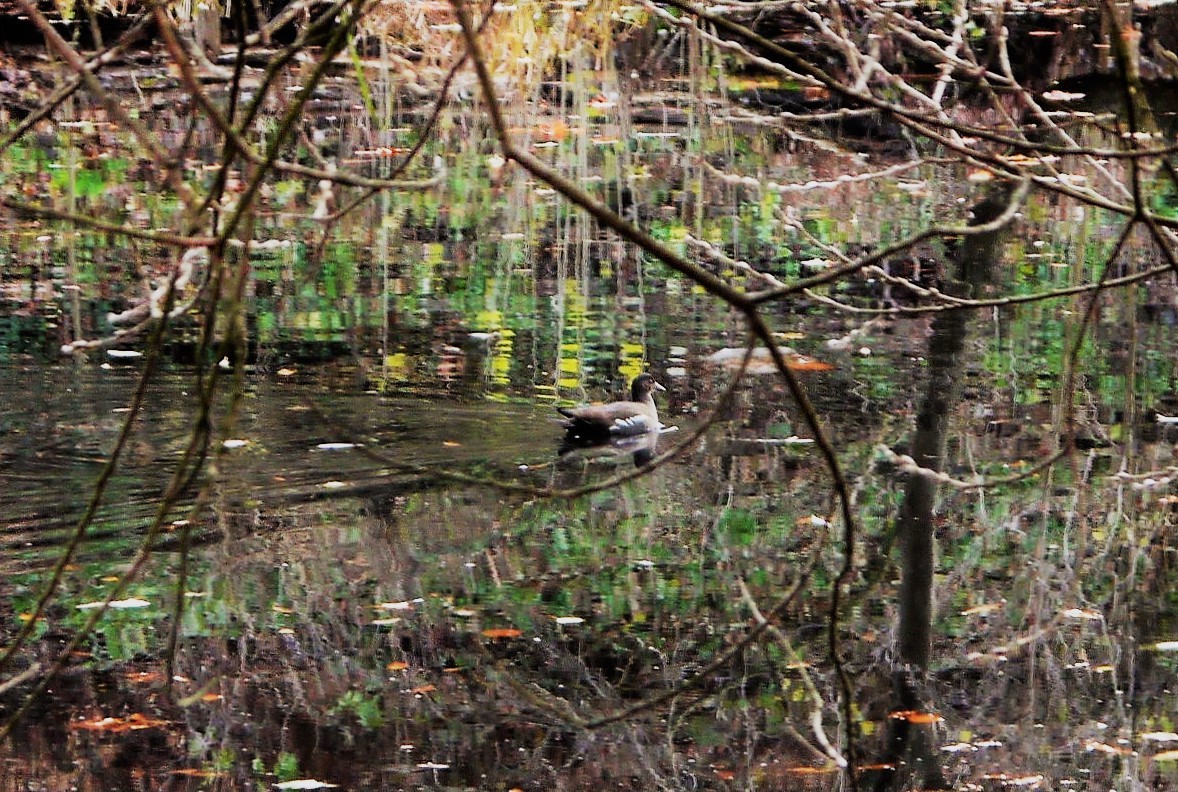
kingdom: Animalia
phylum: Chordata
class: Aves
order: Gruiformes
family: Rallidae
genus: Gallinula
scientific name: Gallinula chloropus
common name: Common moorhen
